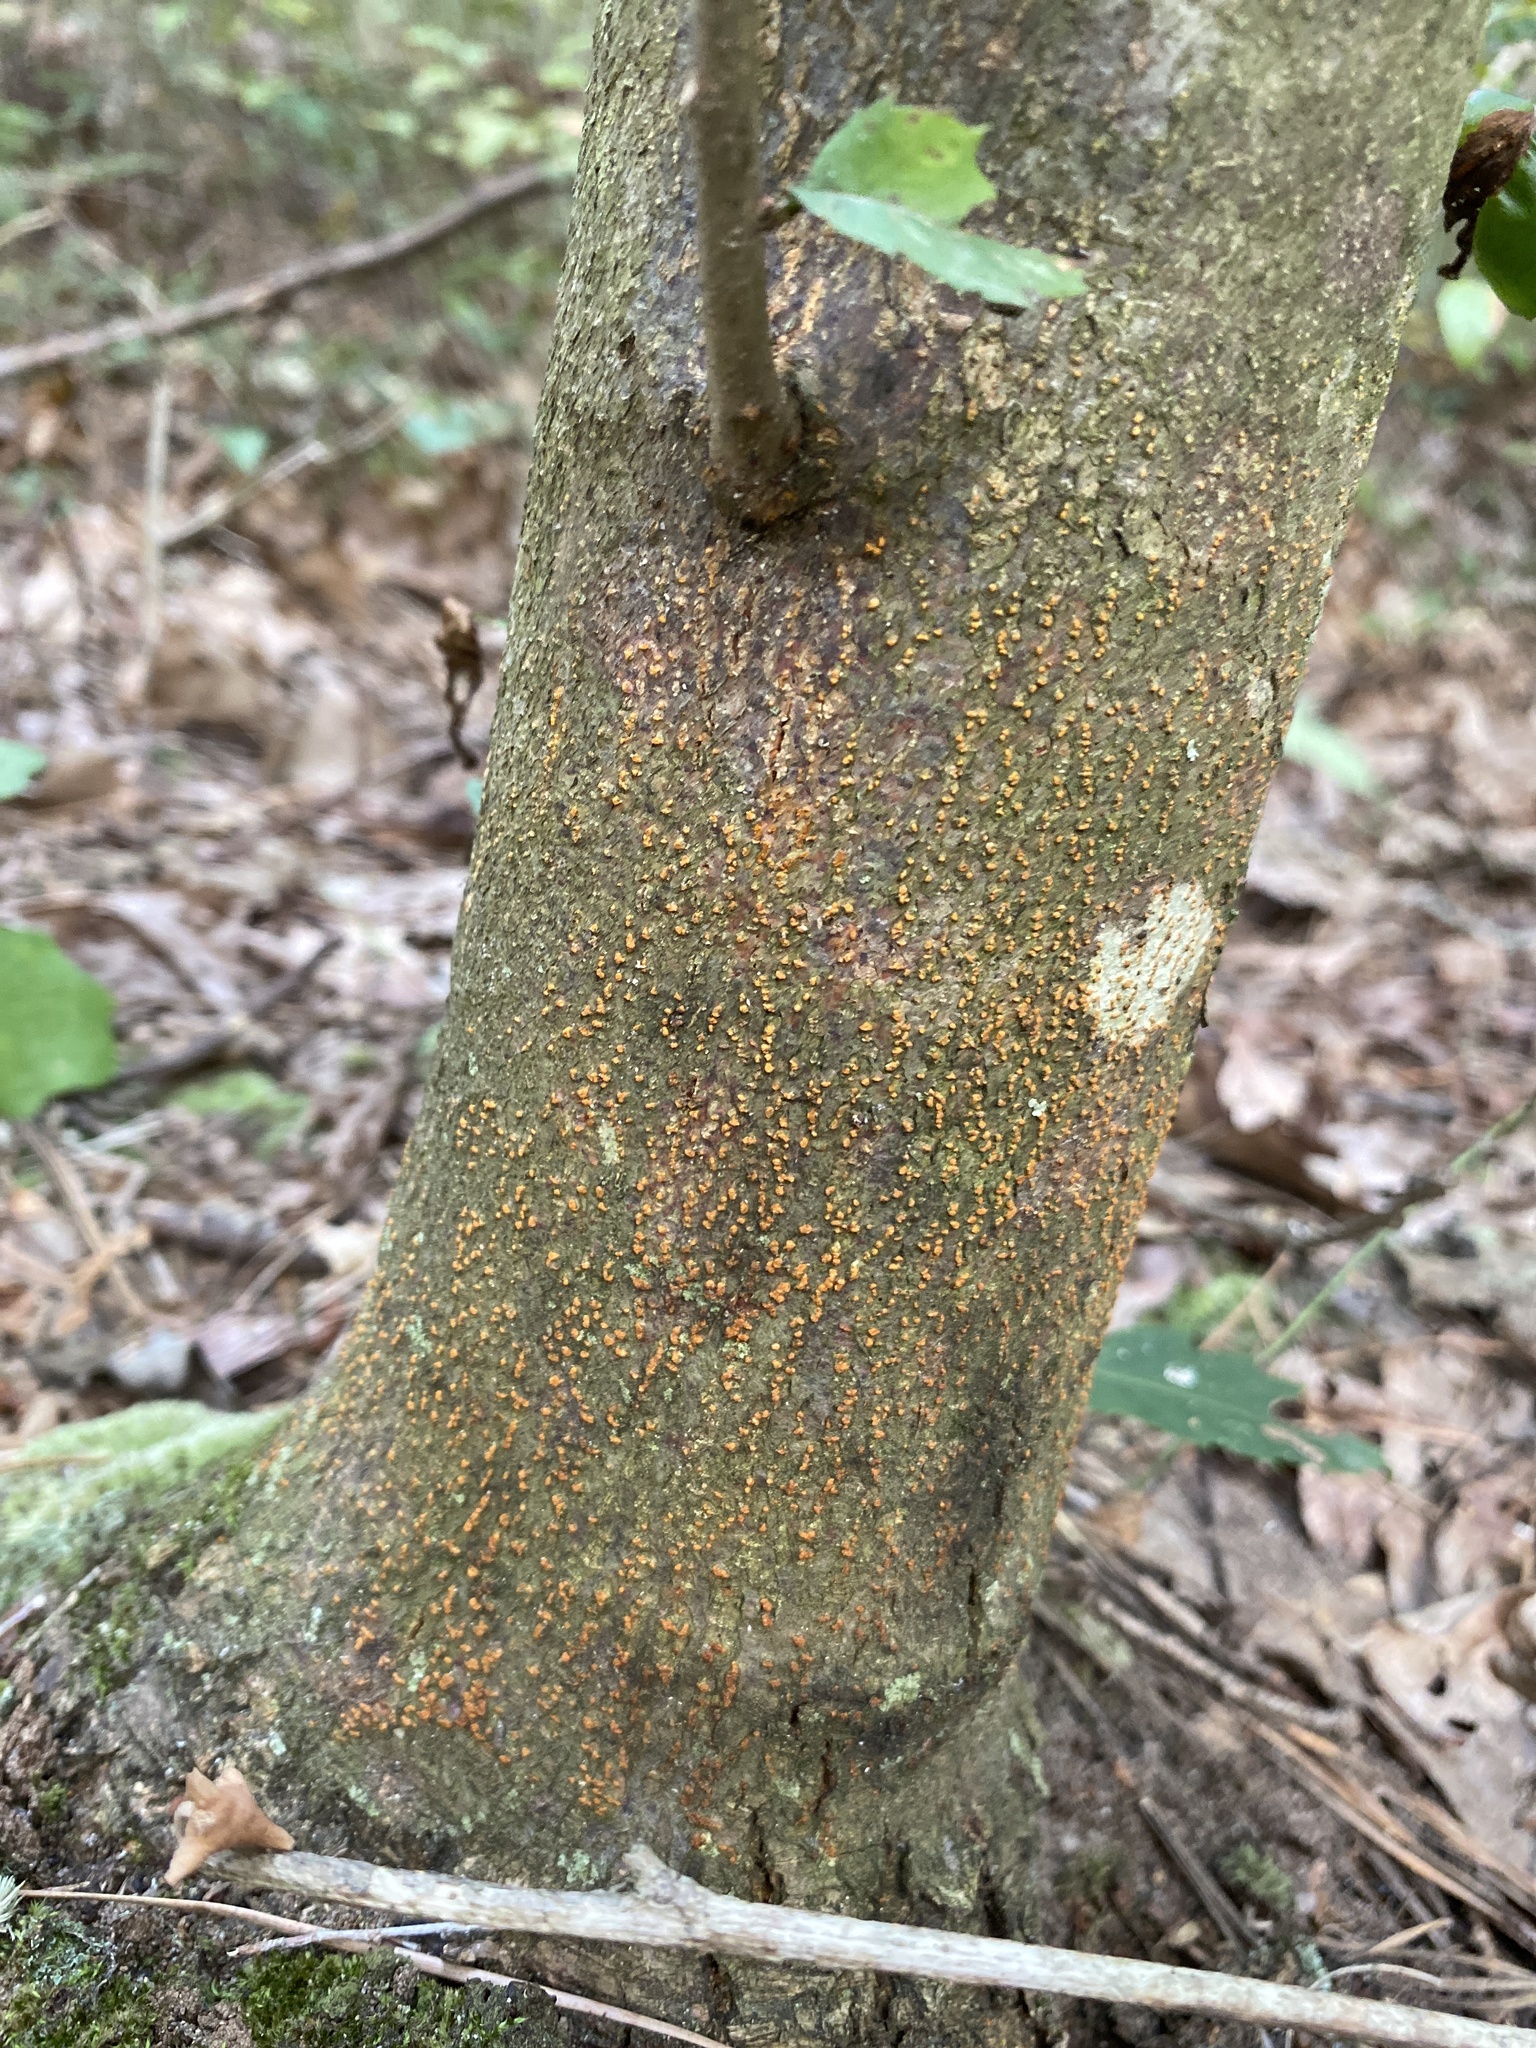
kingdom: Fungi
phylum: Ascomycota
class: Sordariomycetes
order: Diaporthales
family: Cryphonectriaceae
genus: Cryphonectria
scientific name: Cryphonectria parasitica
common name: Chestnut blight
